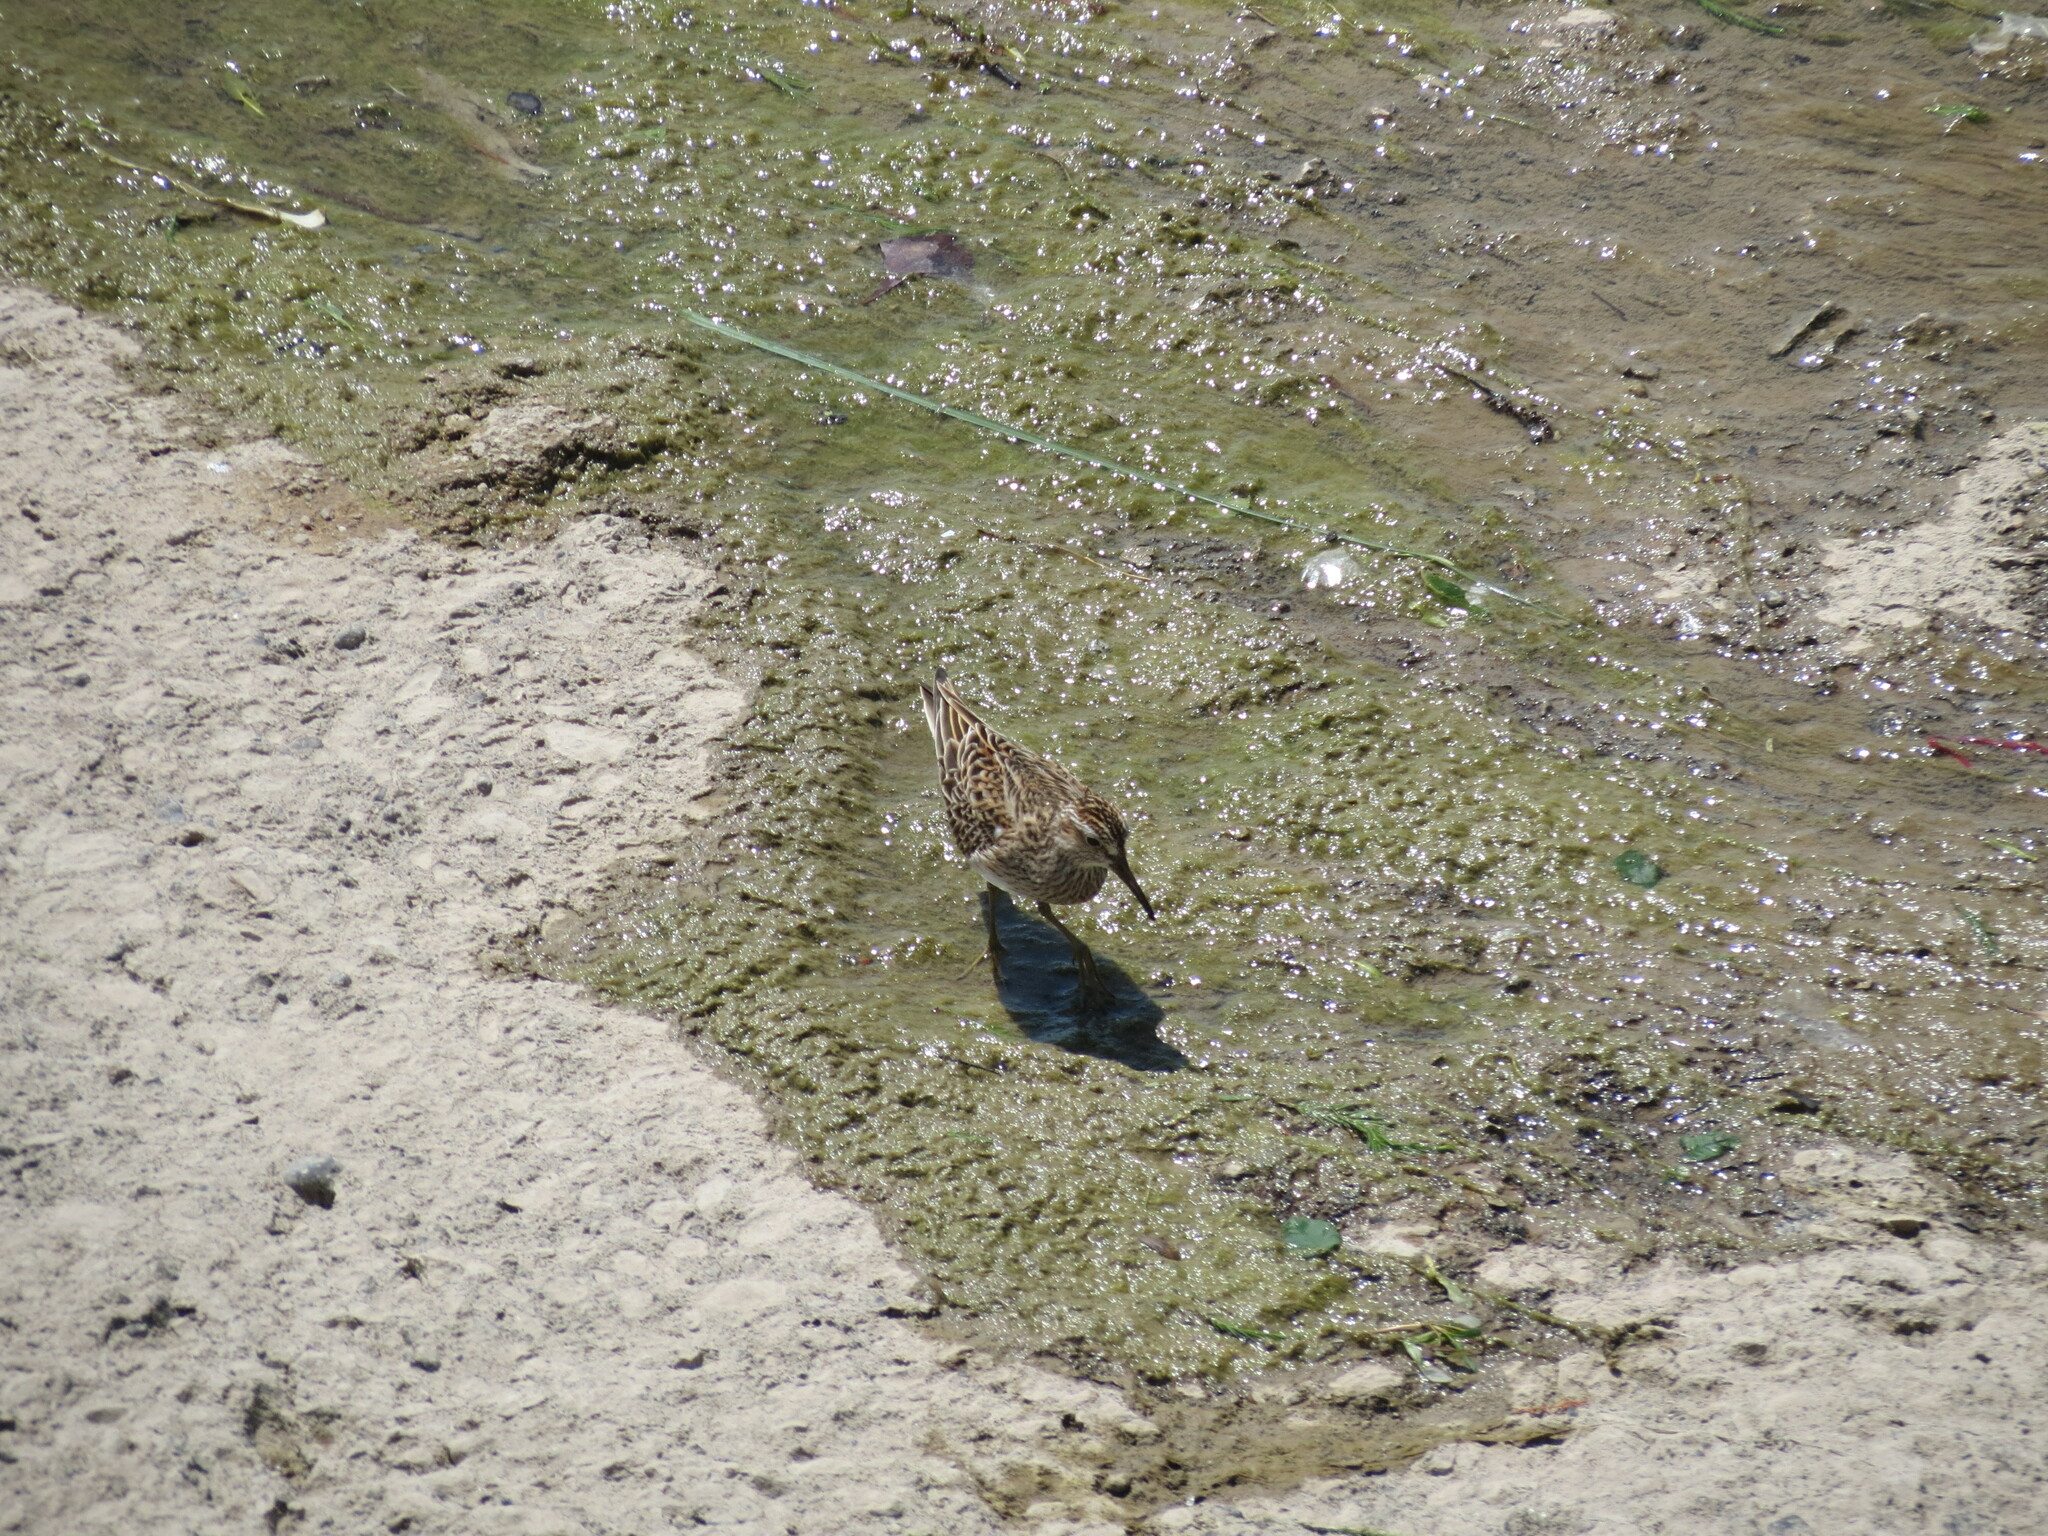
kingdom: Animalia
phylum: Chordata
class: Aves
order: Charadriiformes
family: Scolopacidae
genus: Calidris
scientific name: Calidris minutilla
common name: Least sandpiper
